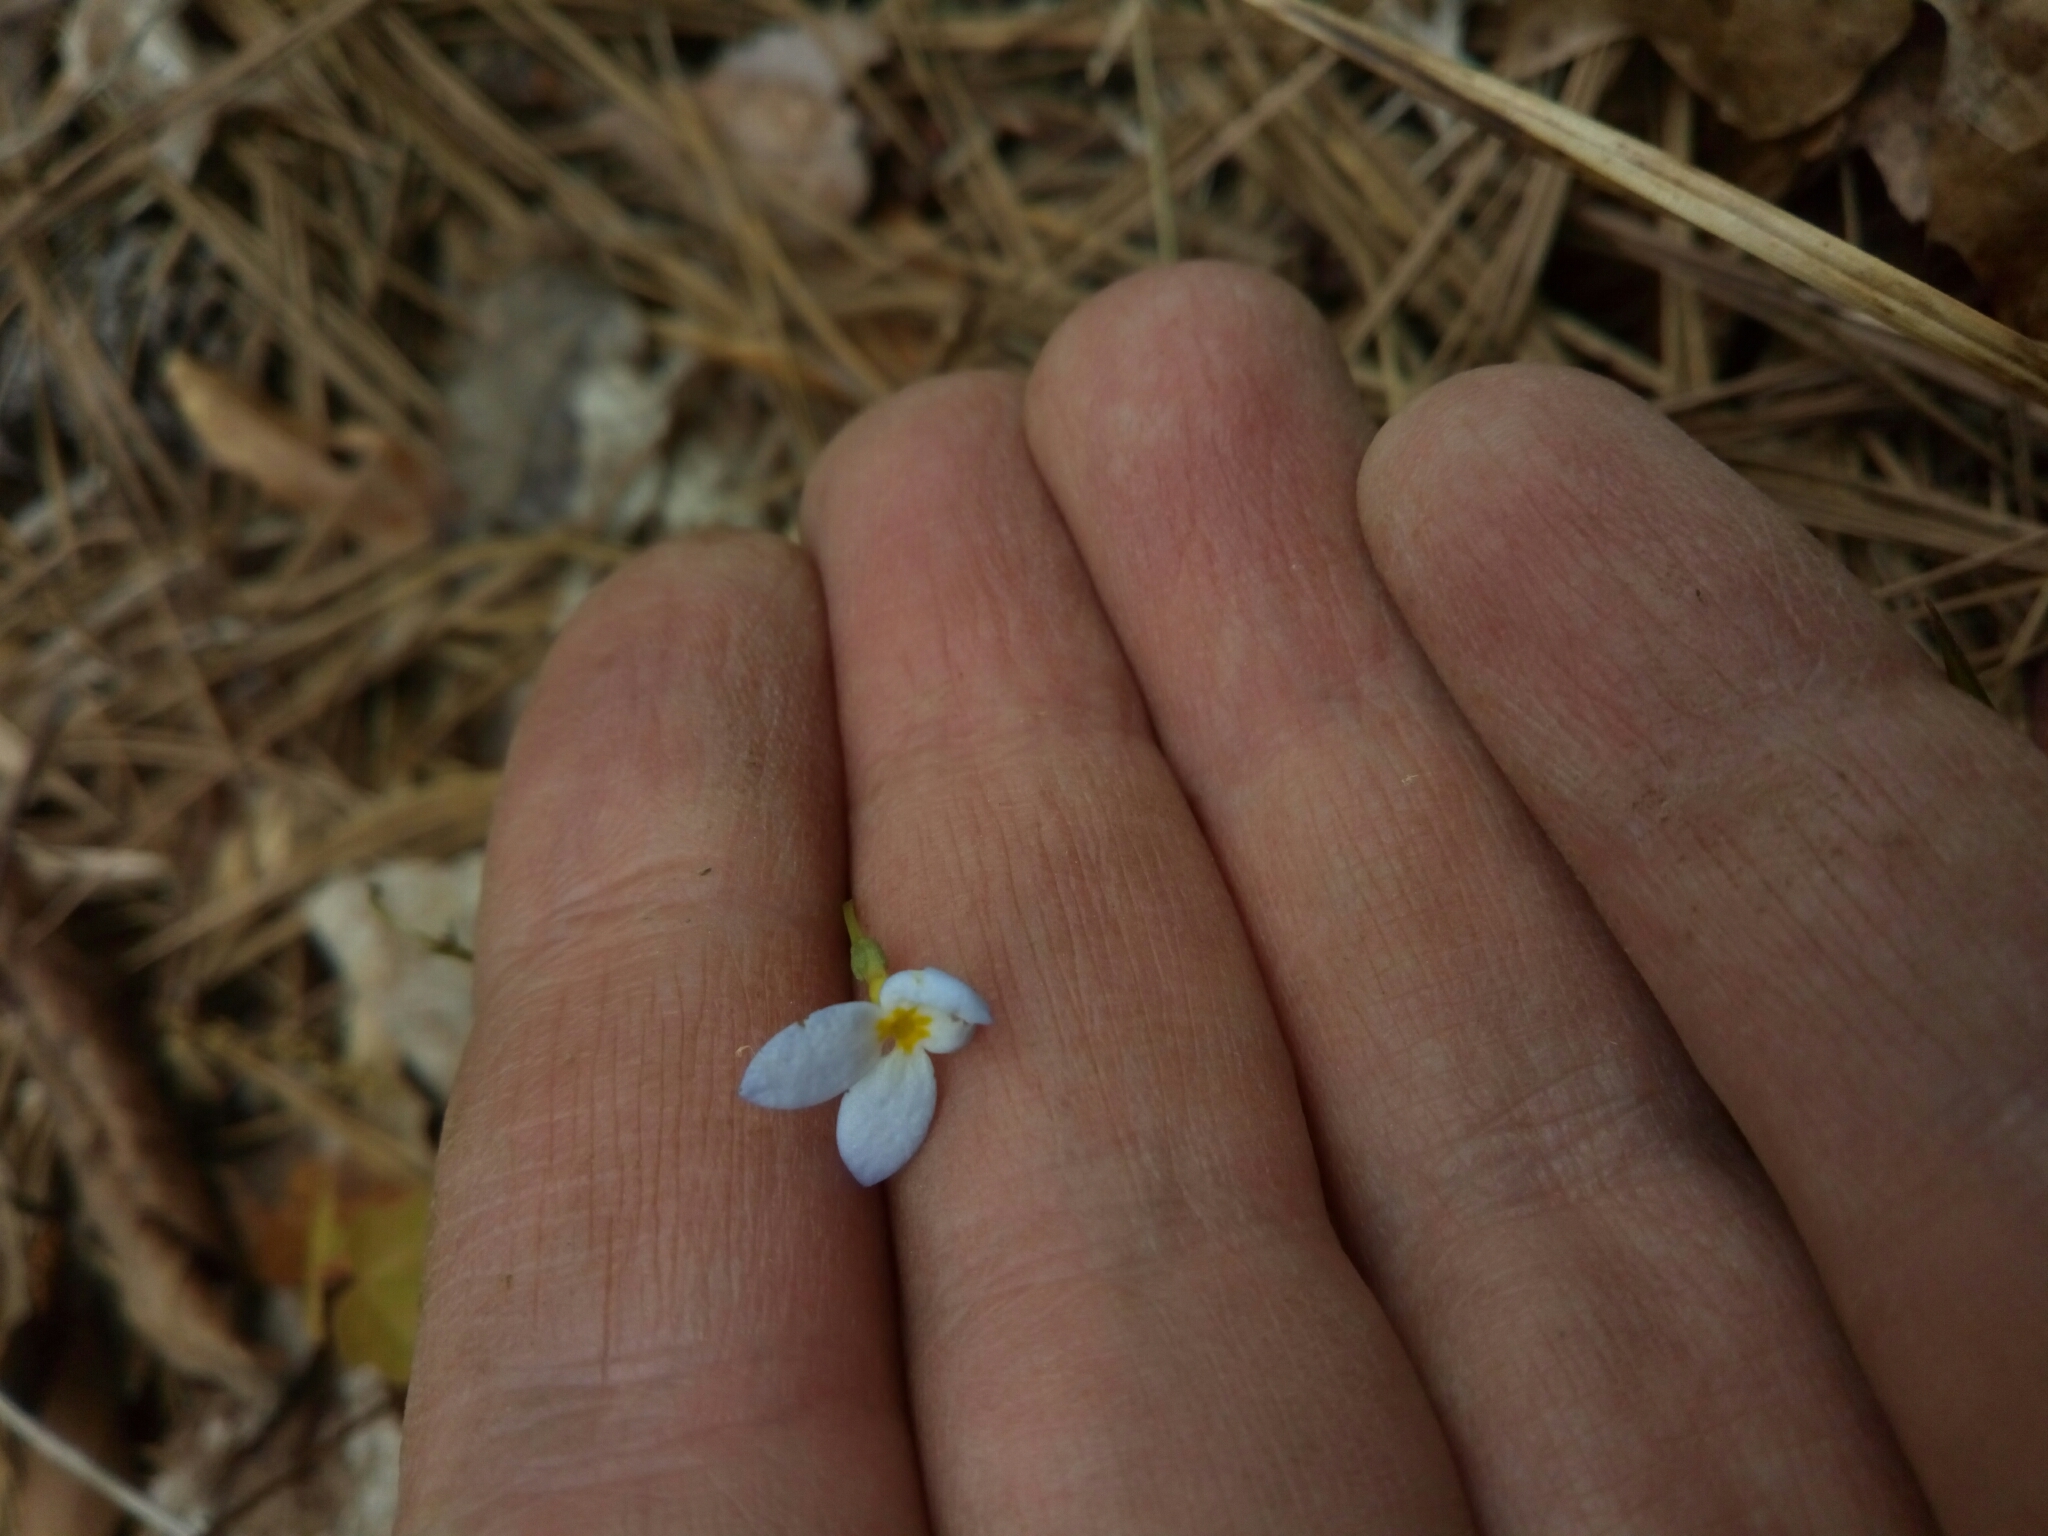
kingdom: Plantae
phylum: Tracheophyta
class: Magnoliopsida
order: Gentianales
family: Rubiaceae
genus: Houstonia
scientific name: Houstonia caerulea
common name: Bluets
